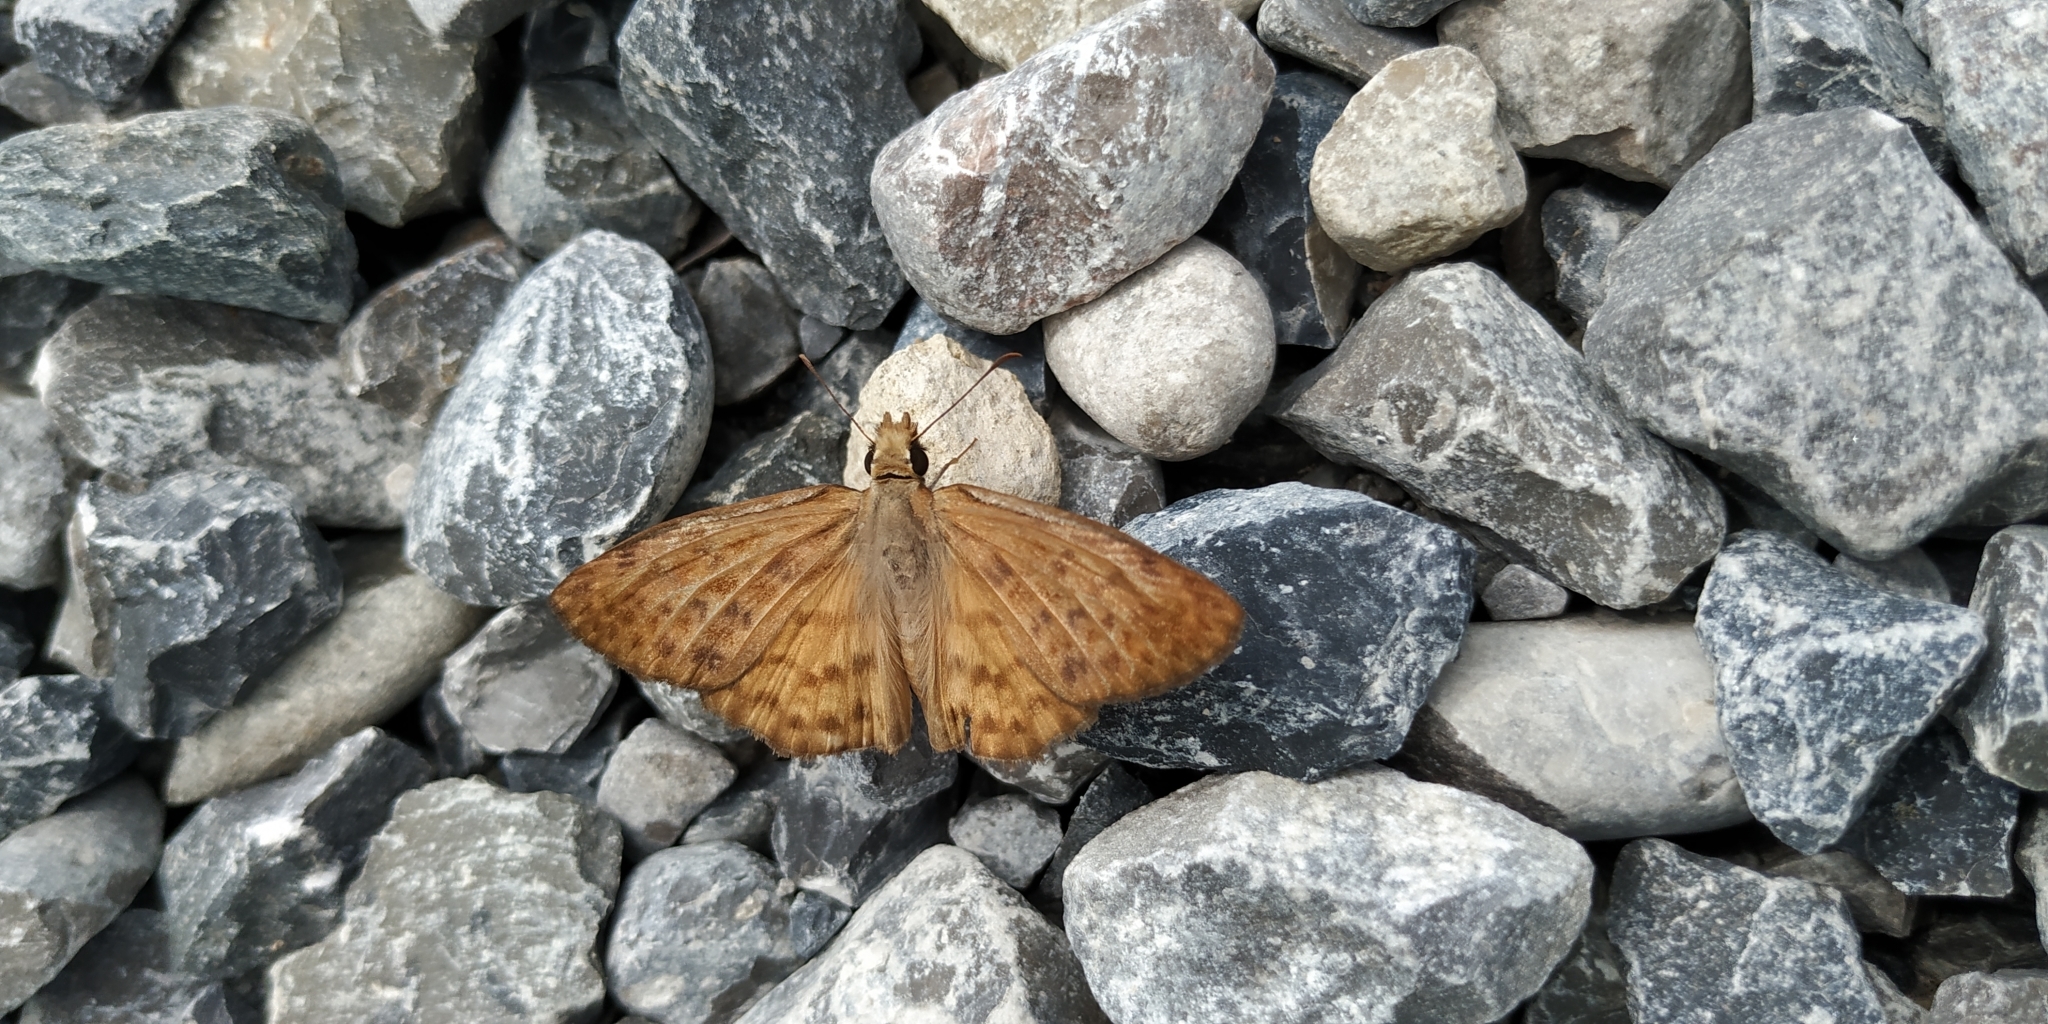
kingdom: Animalia
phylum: Arthropoda
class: Insecta
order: Lepidoptera
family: Hesperiidae
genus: Timochares
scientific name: Timochares ruptifasciata
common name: Brown-banded skipper
